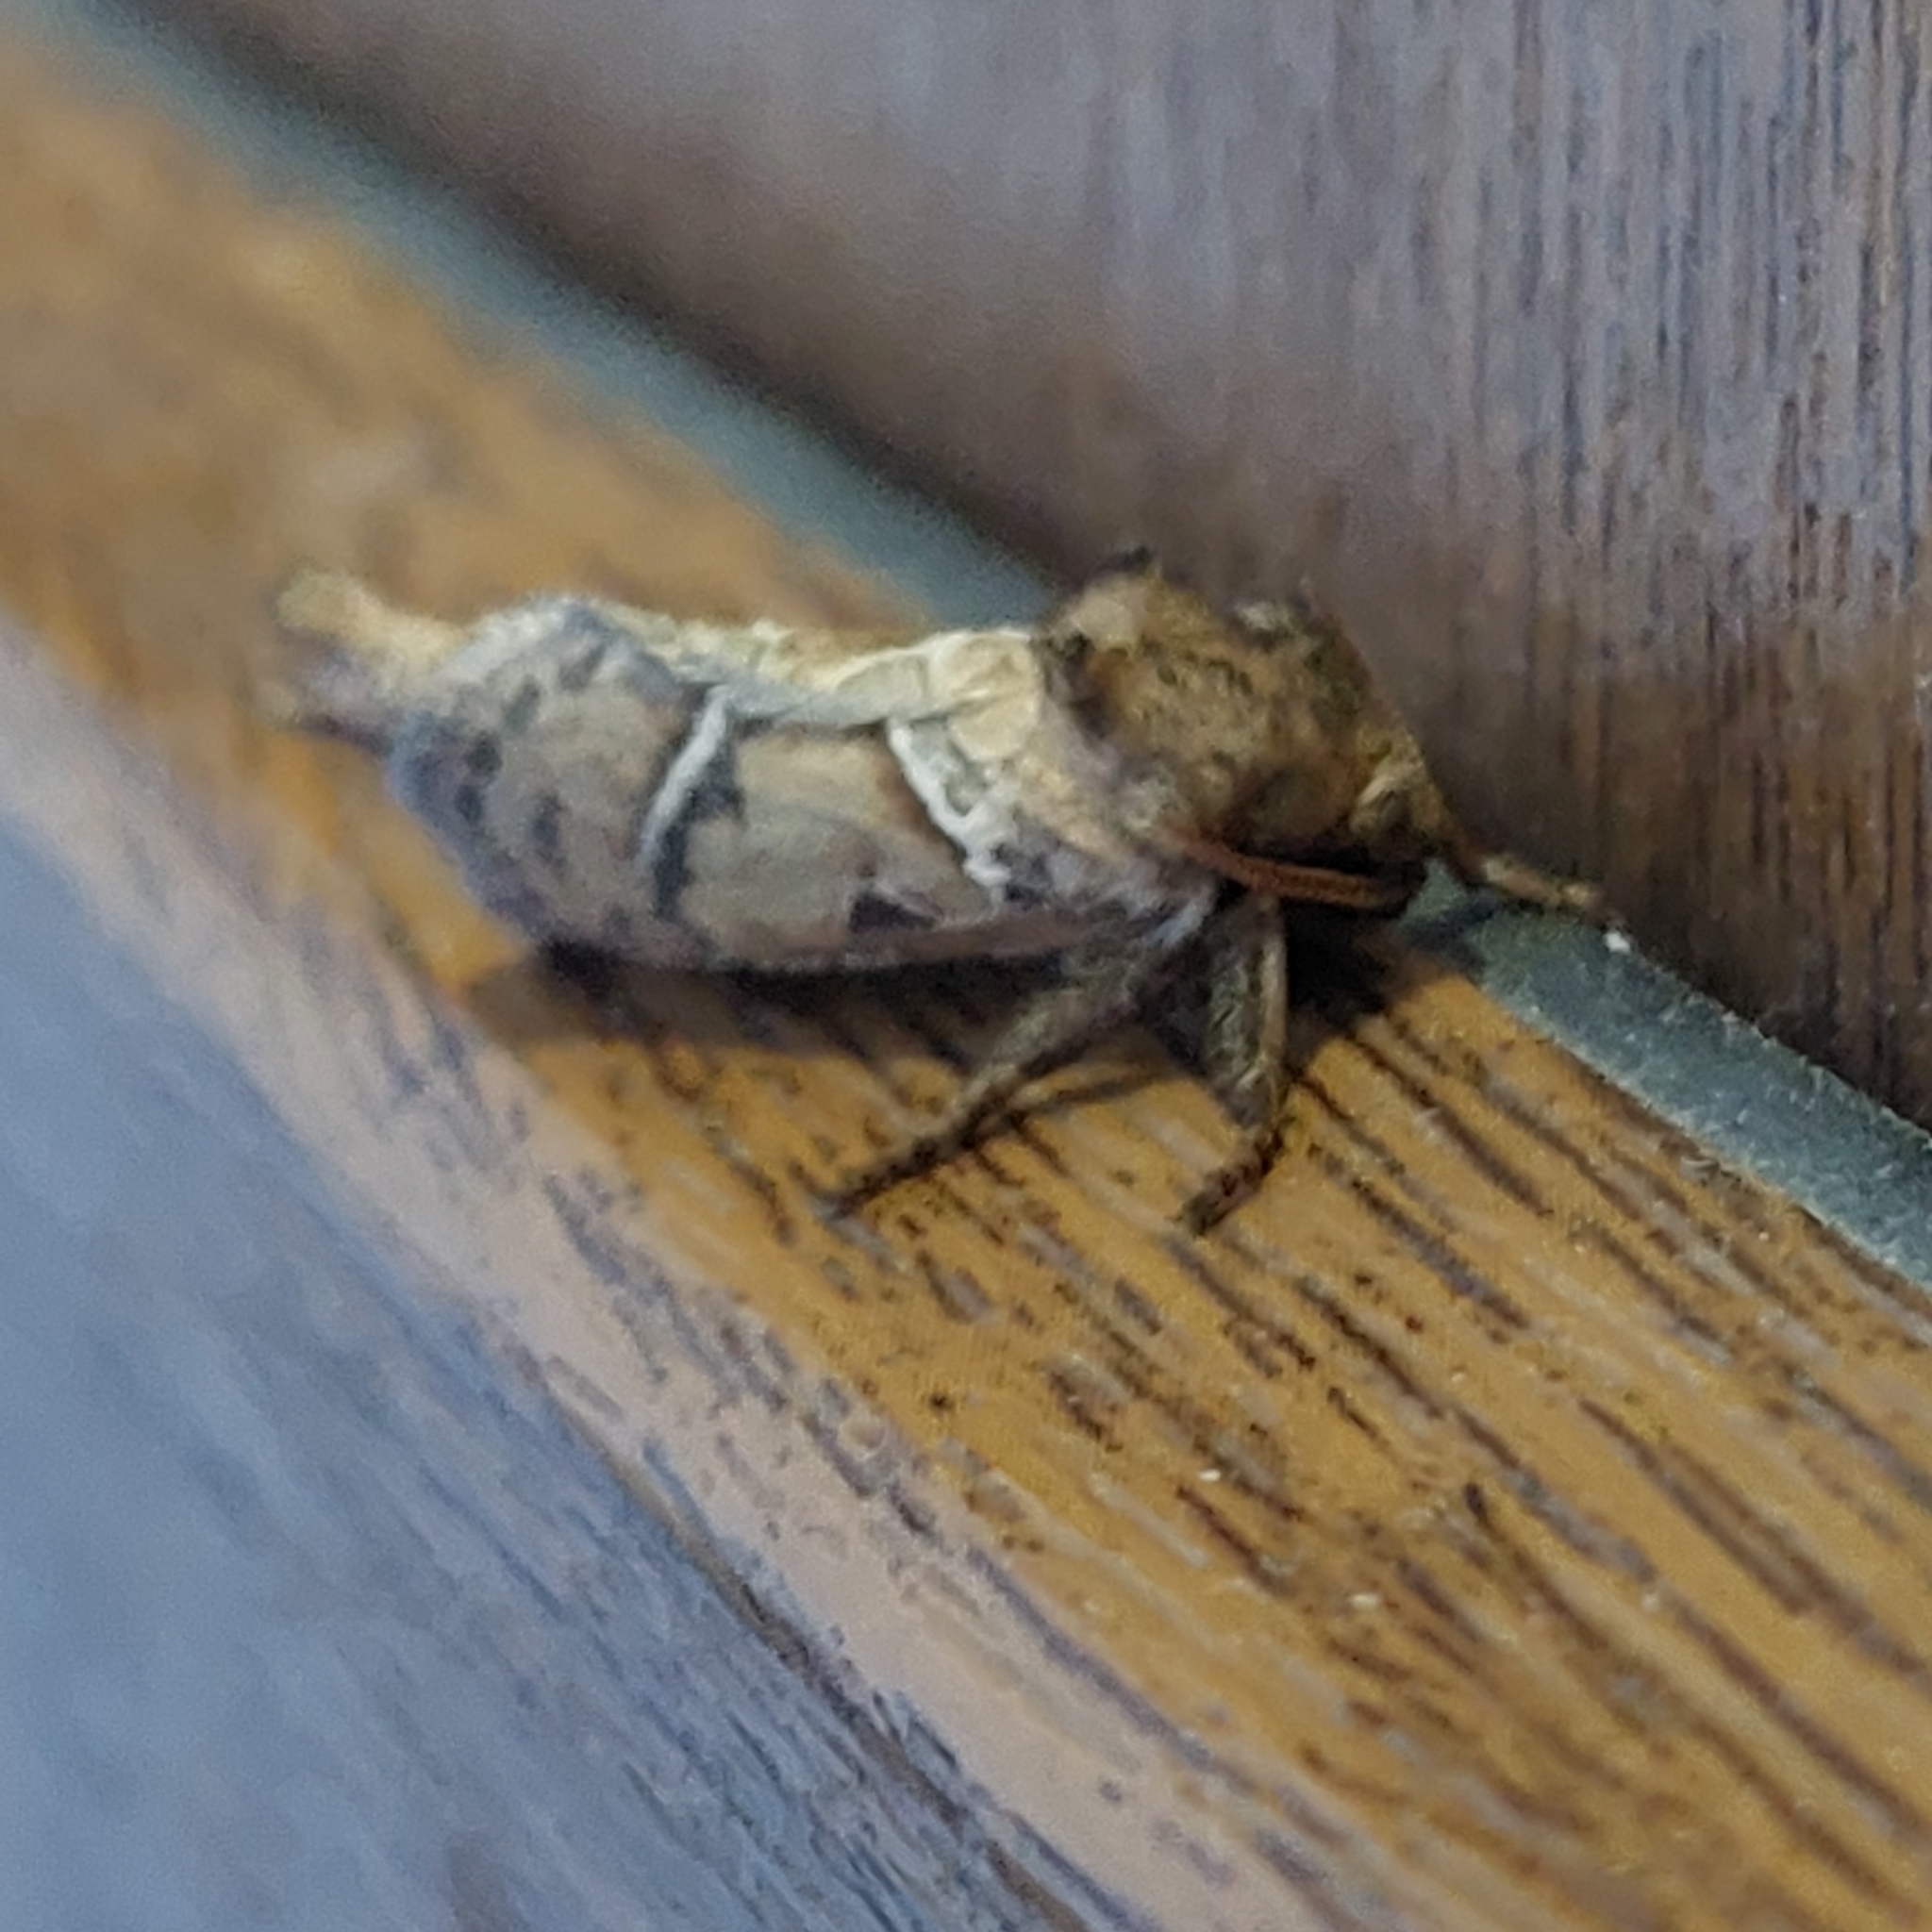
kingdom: Animalia
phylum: Arthropoda
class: Insecta
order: Lepidoptera
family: Hepialidae
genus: Triodia
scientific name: Triodia sylvina
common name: Orange swift
